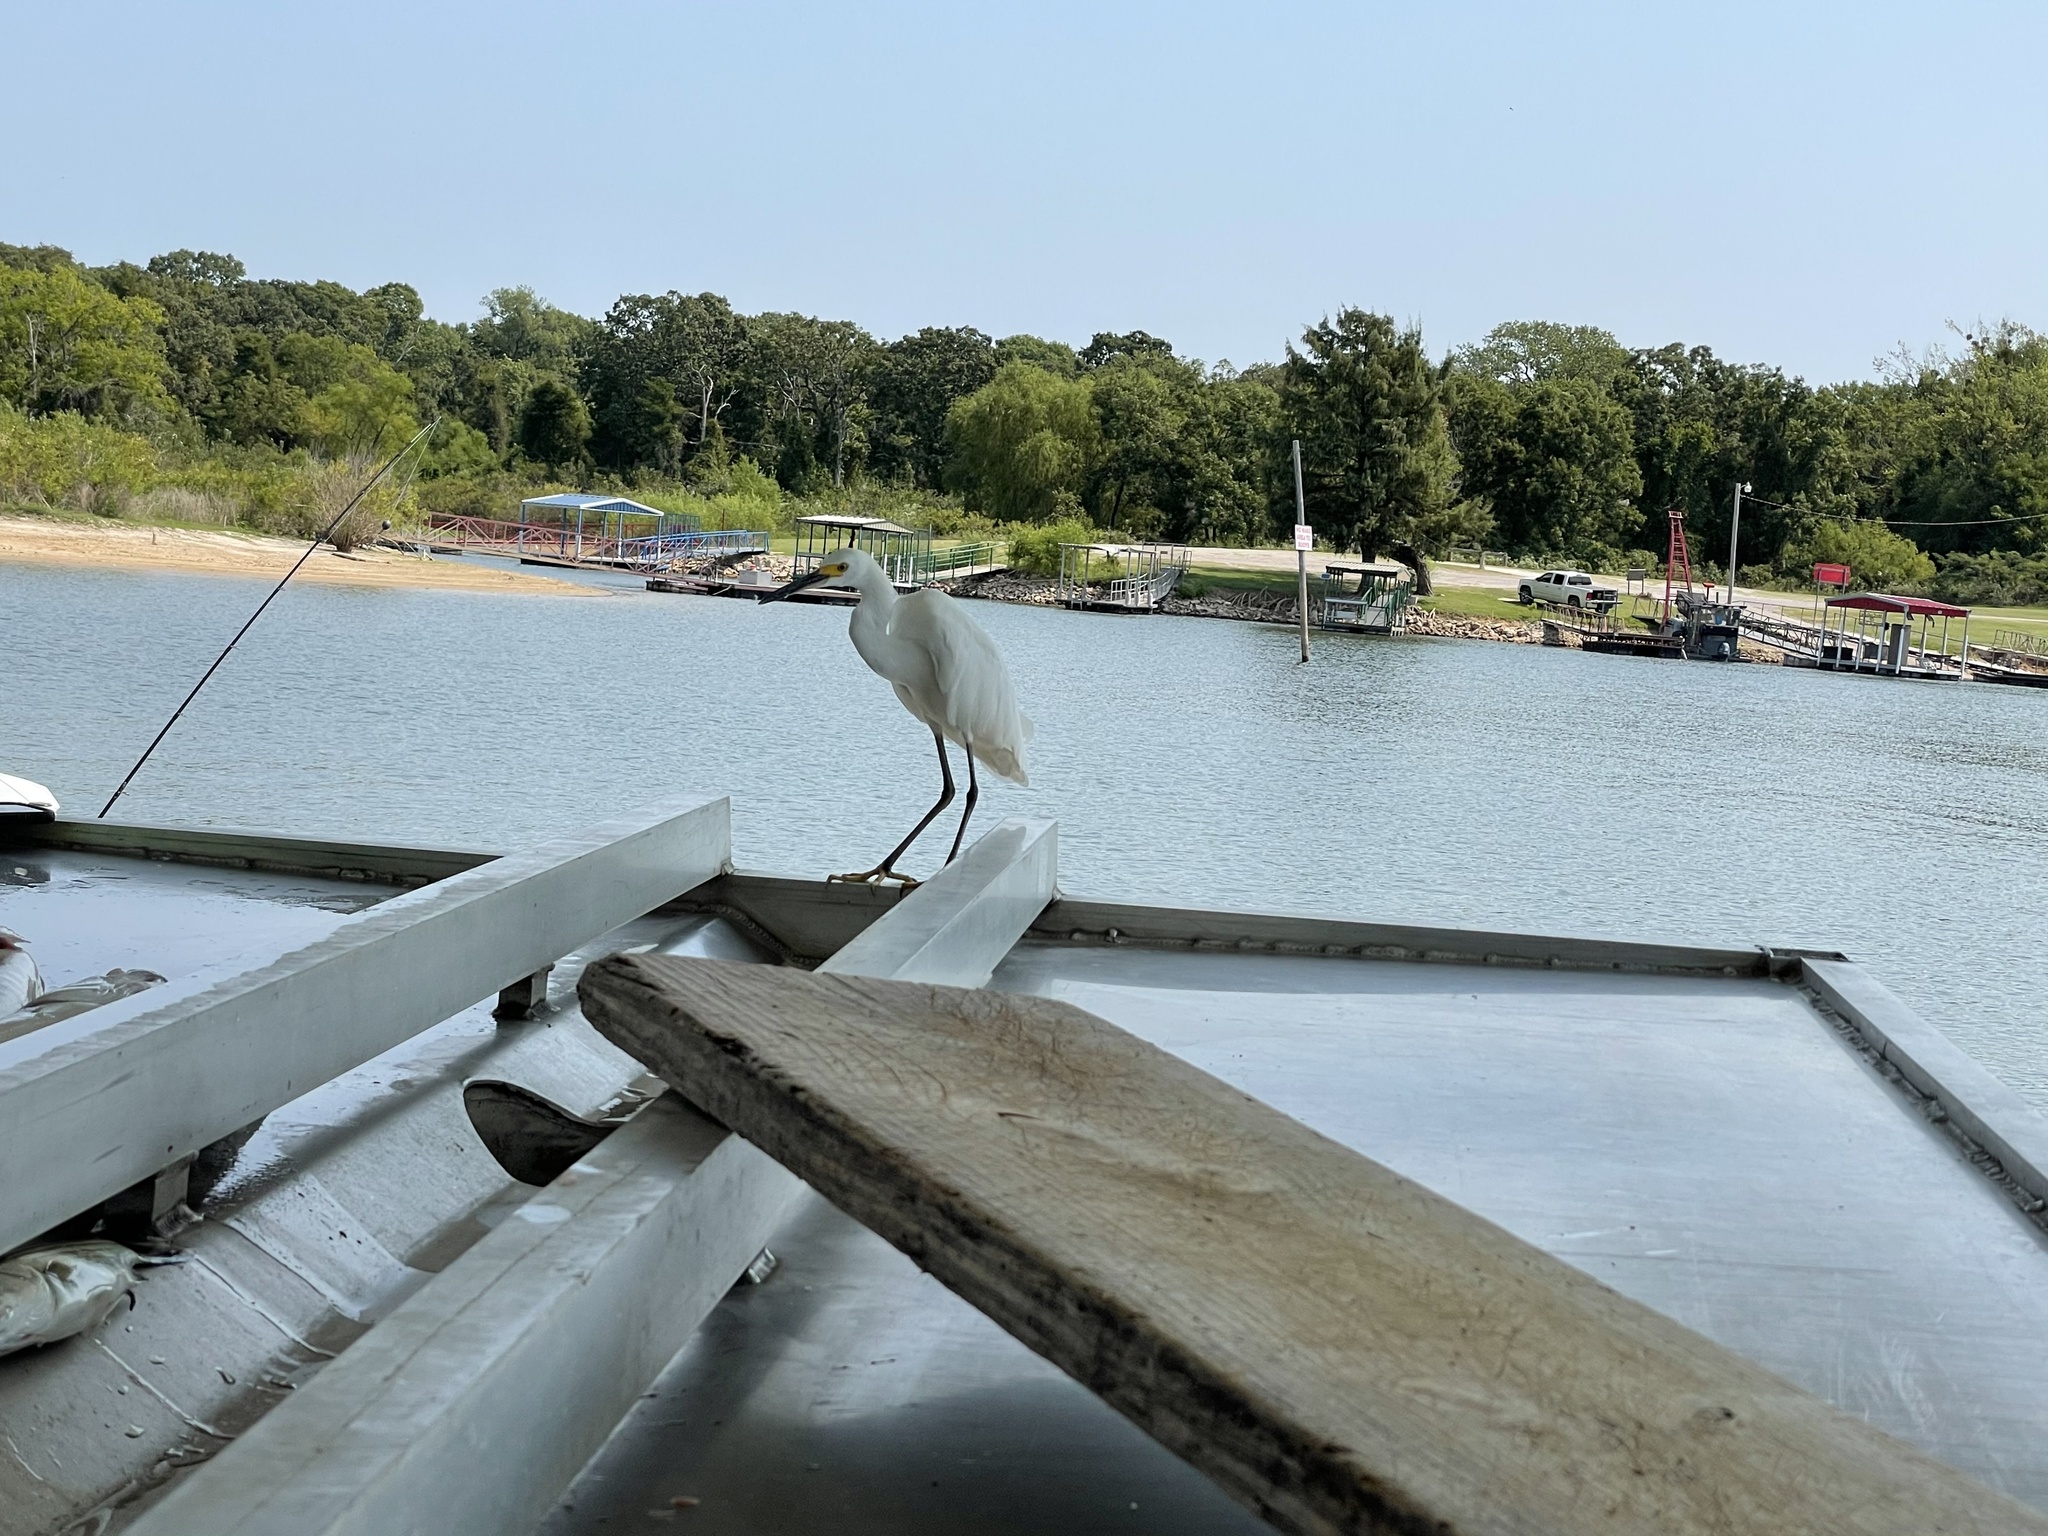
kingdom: Animalia
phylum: Chordata
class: Aves
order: Pelecaniformes
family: Ardeidae
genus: Egretta
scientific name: Egretta thula
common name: Snowy egret
